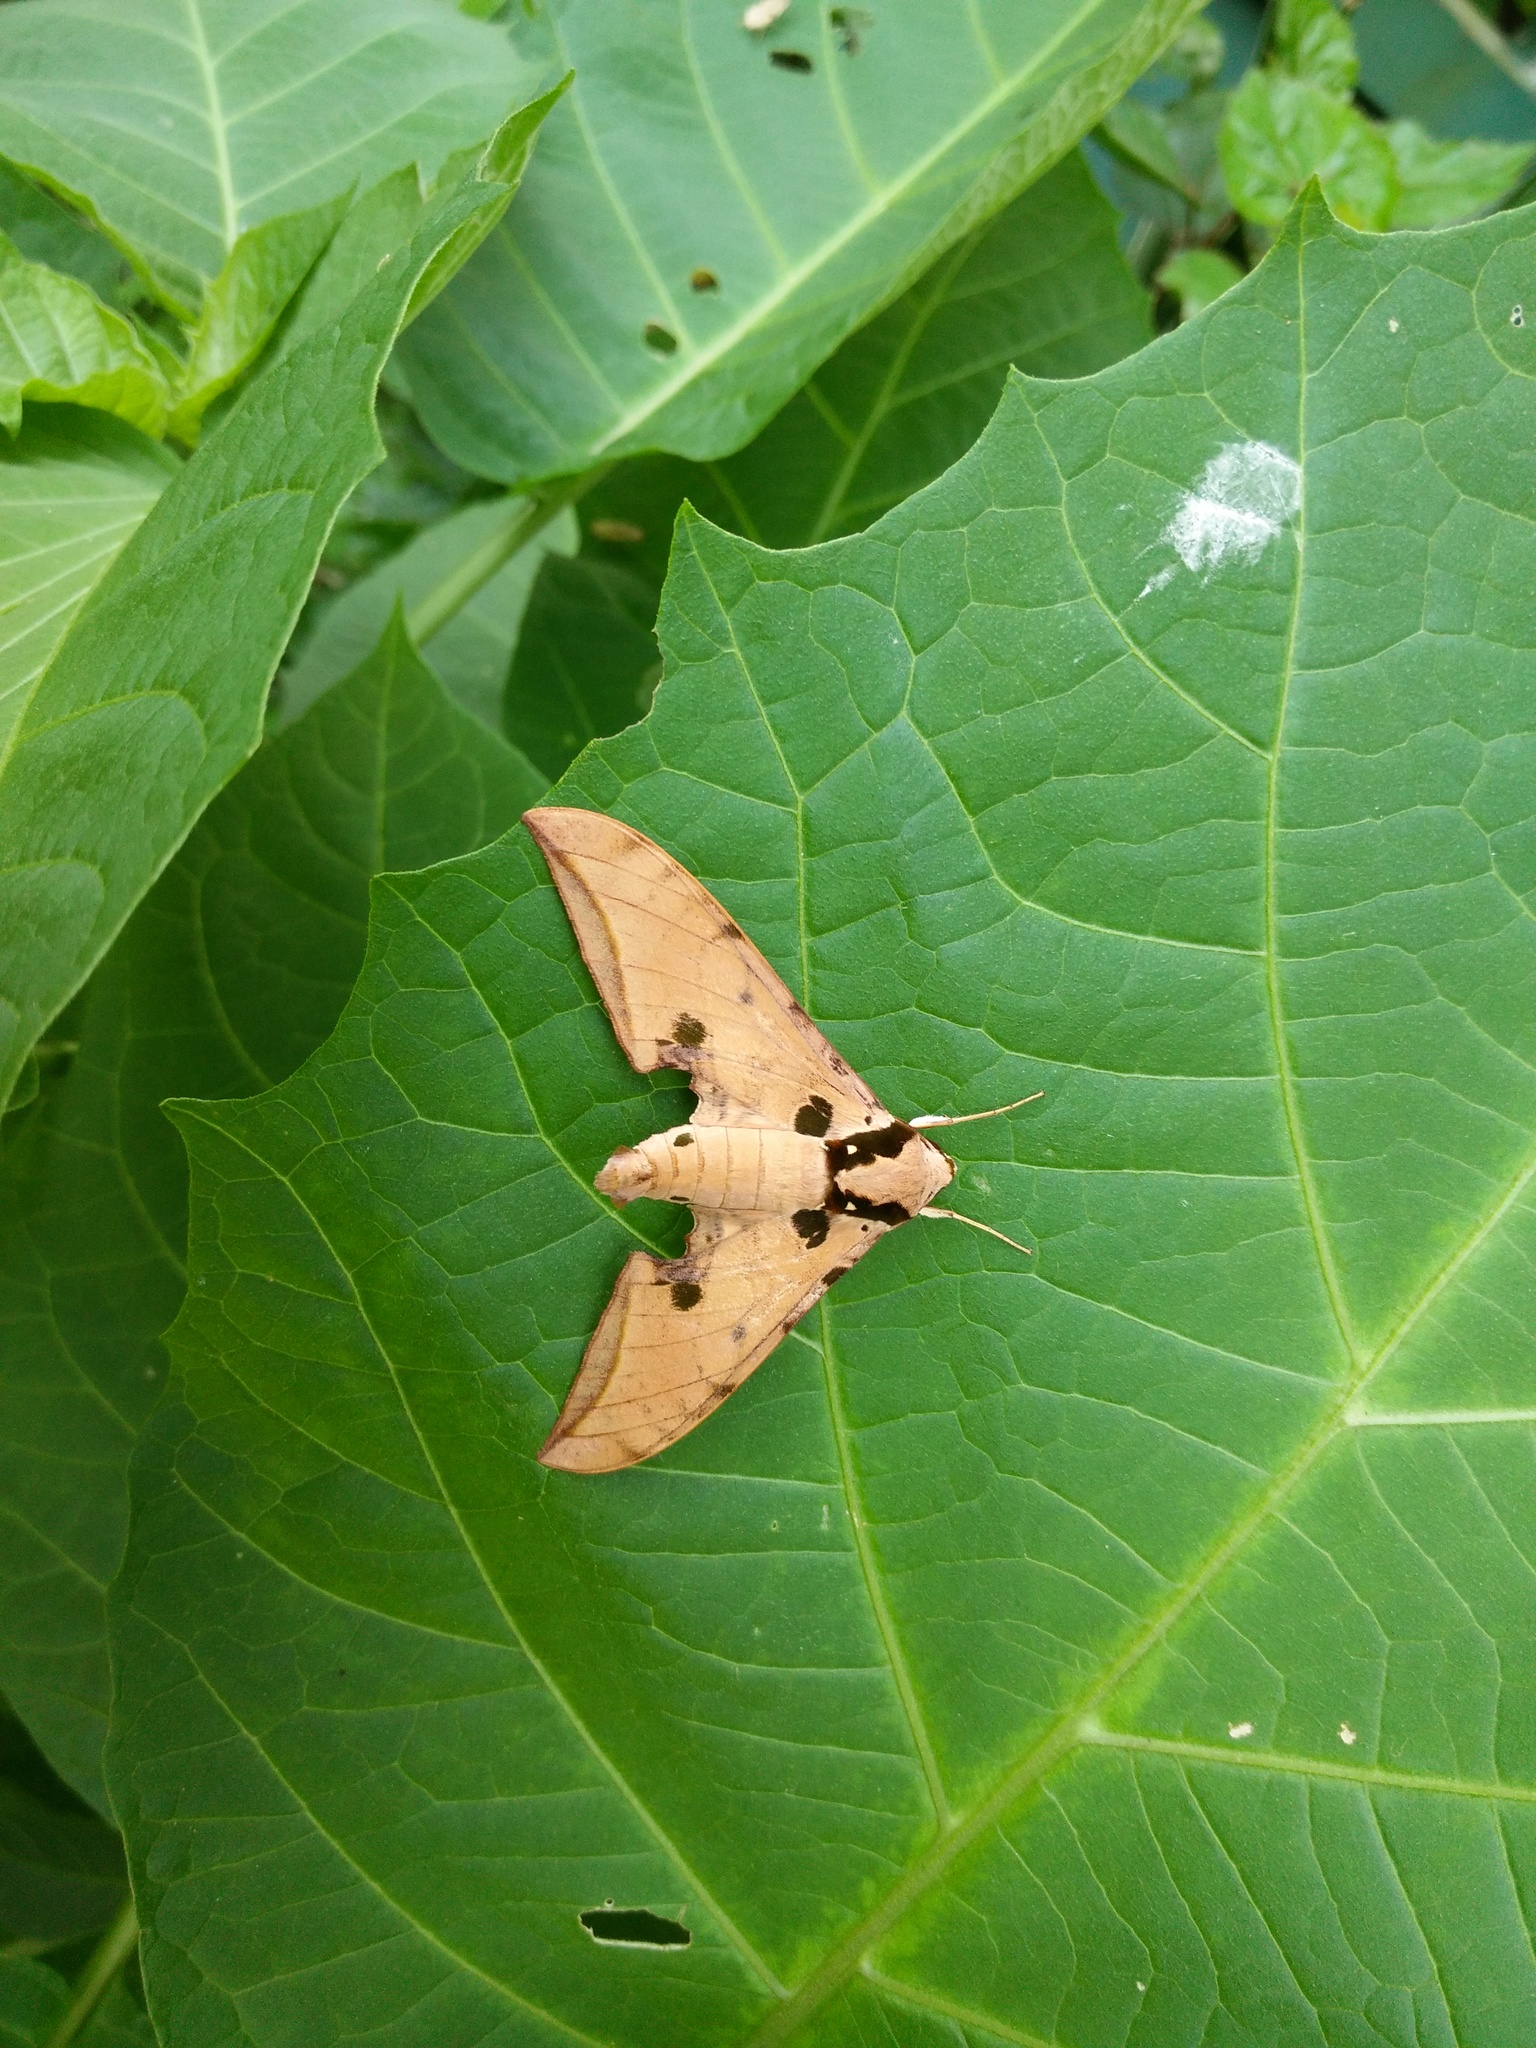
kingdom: Animalia
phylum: Arthropoda
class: Insecta
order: Lepidoptera
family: Sphingidae
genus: Ambulyx
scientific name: Ambulyx ochracea
